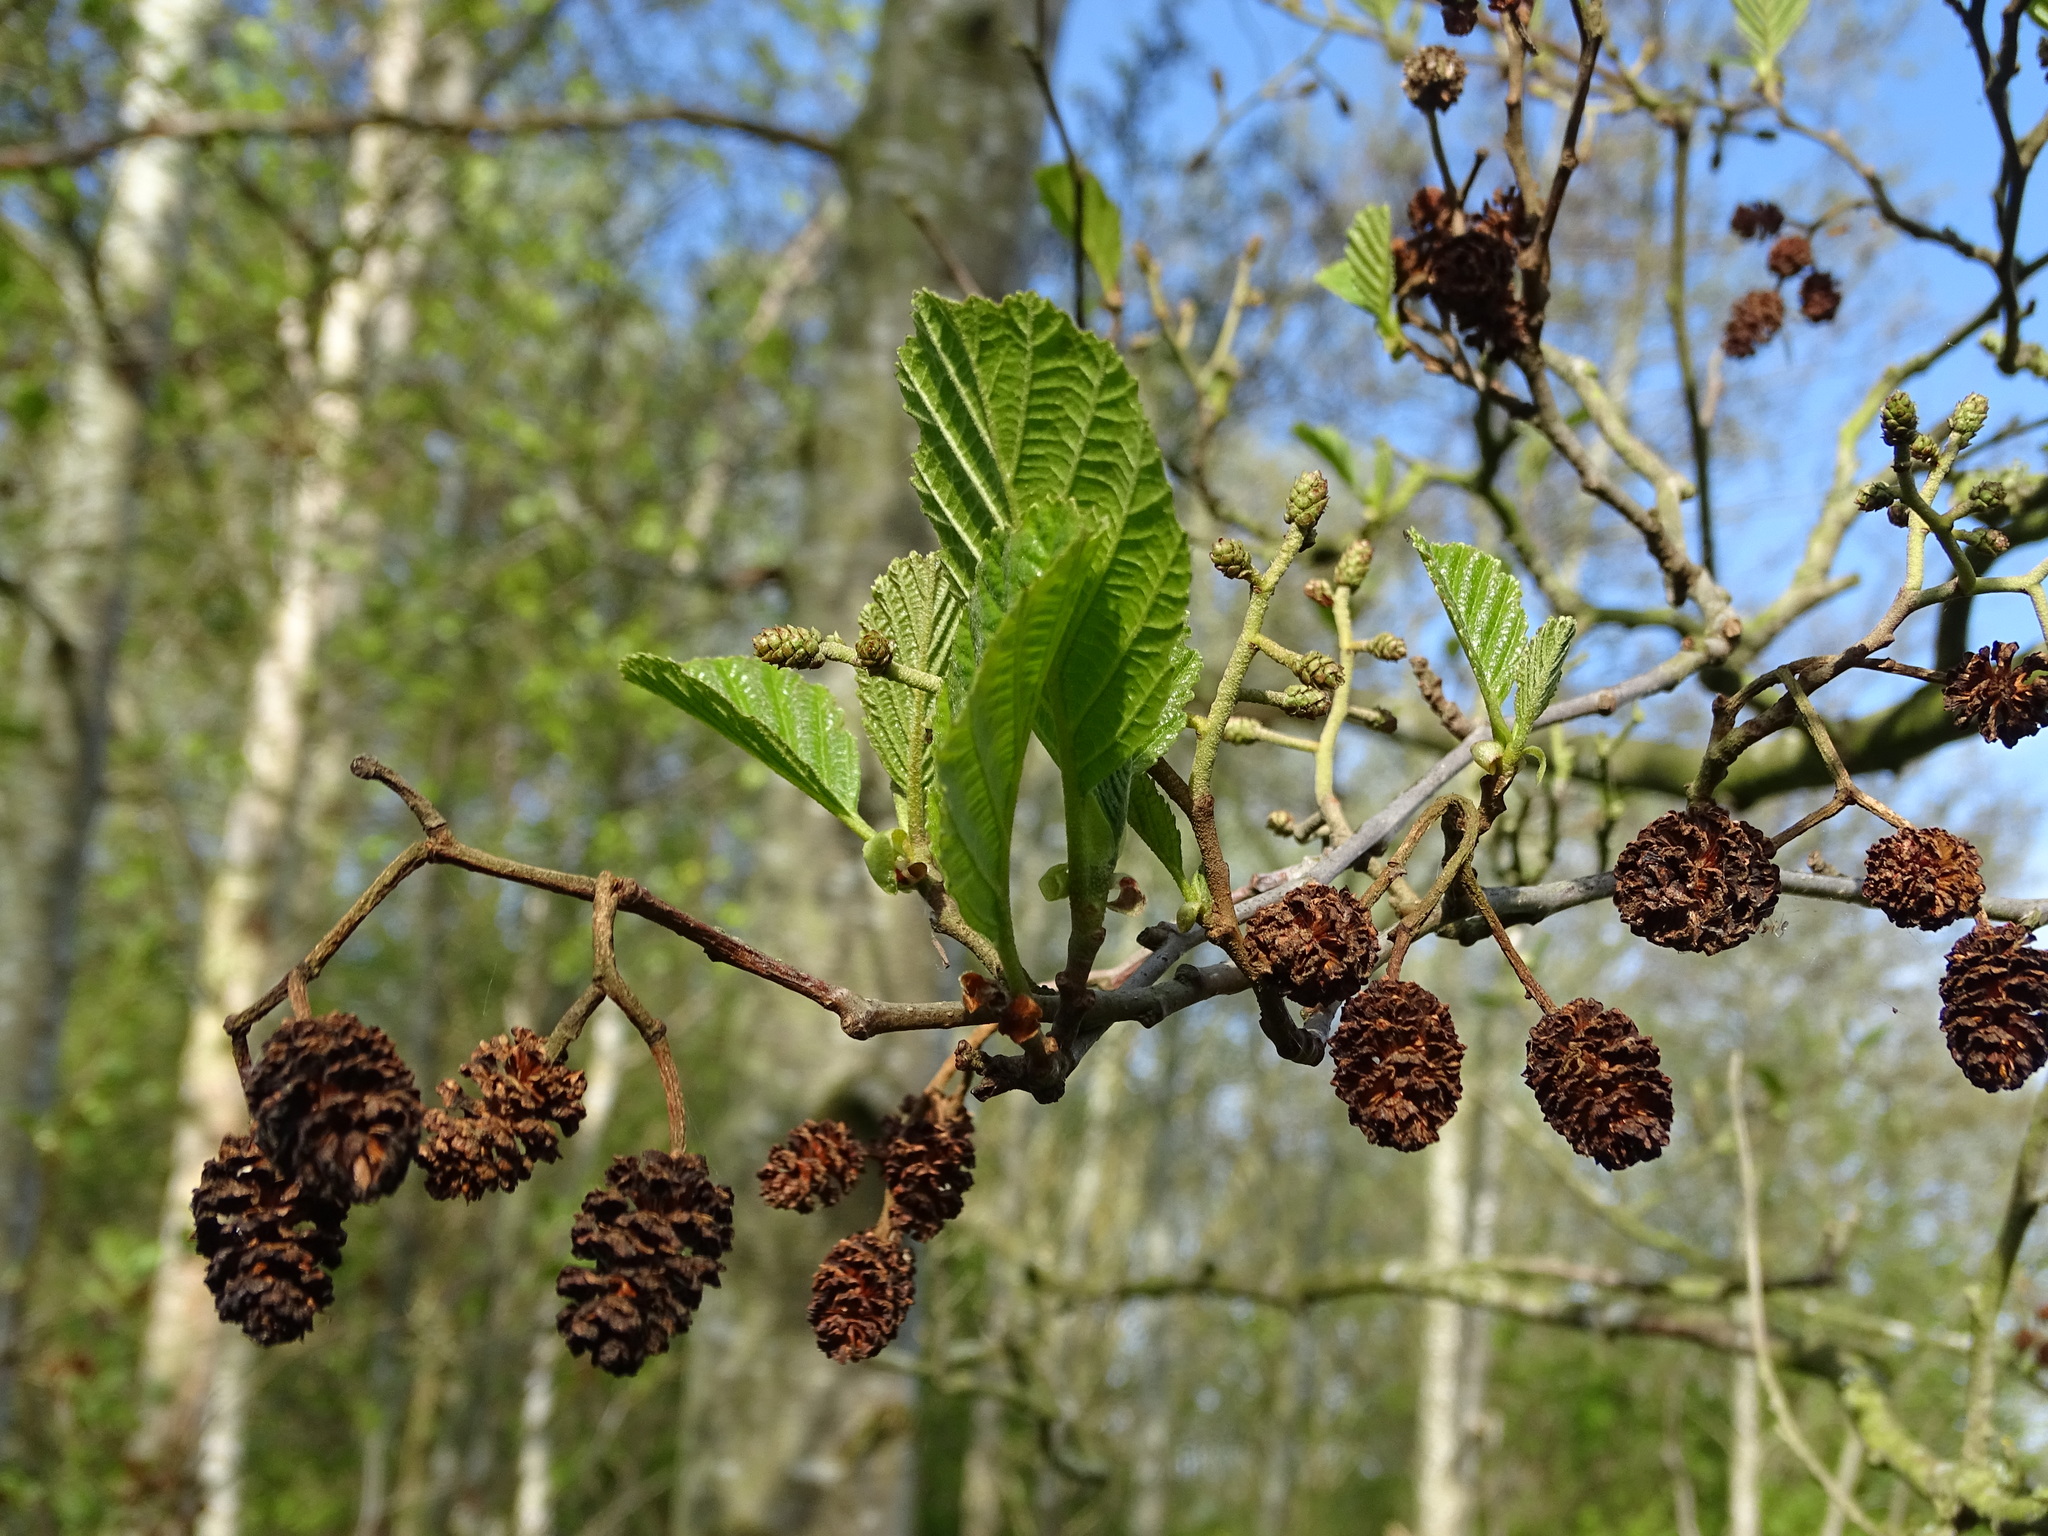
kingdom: Plantae
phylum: Tracheophyta
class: Magnoliopsida
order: Fagales
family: Betulaceae
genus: Alnus
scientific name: Alnus glutinosa
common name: Black alder
